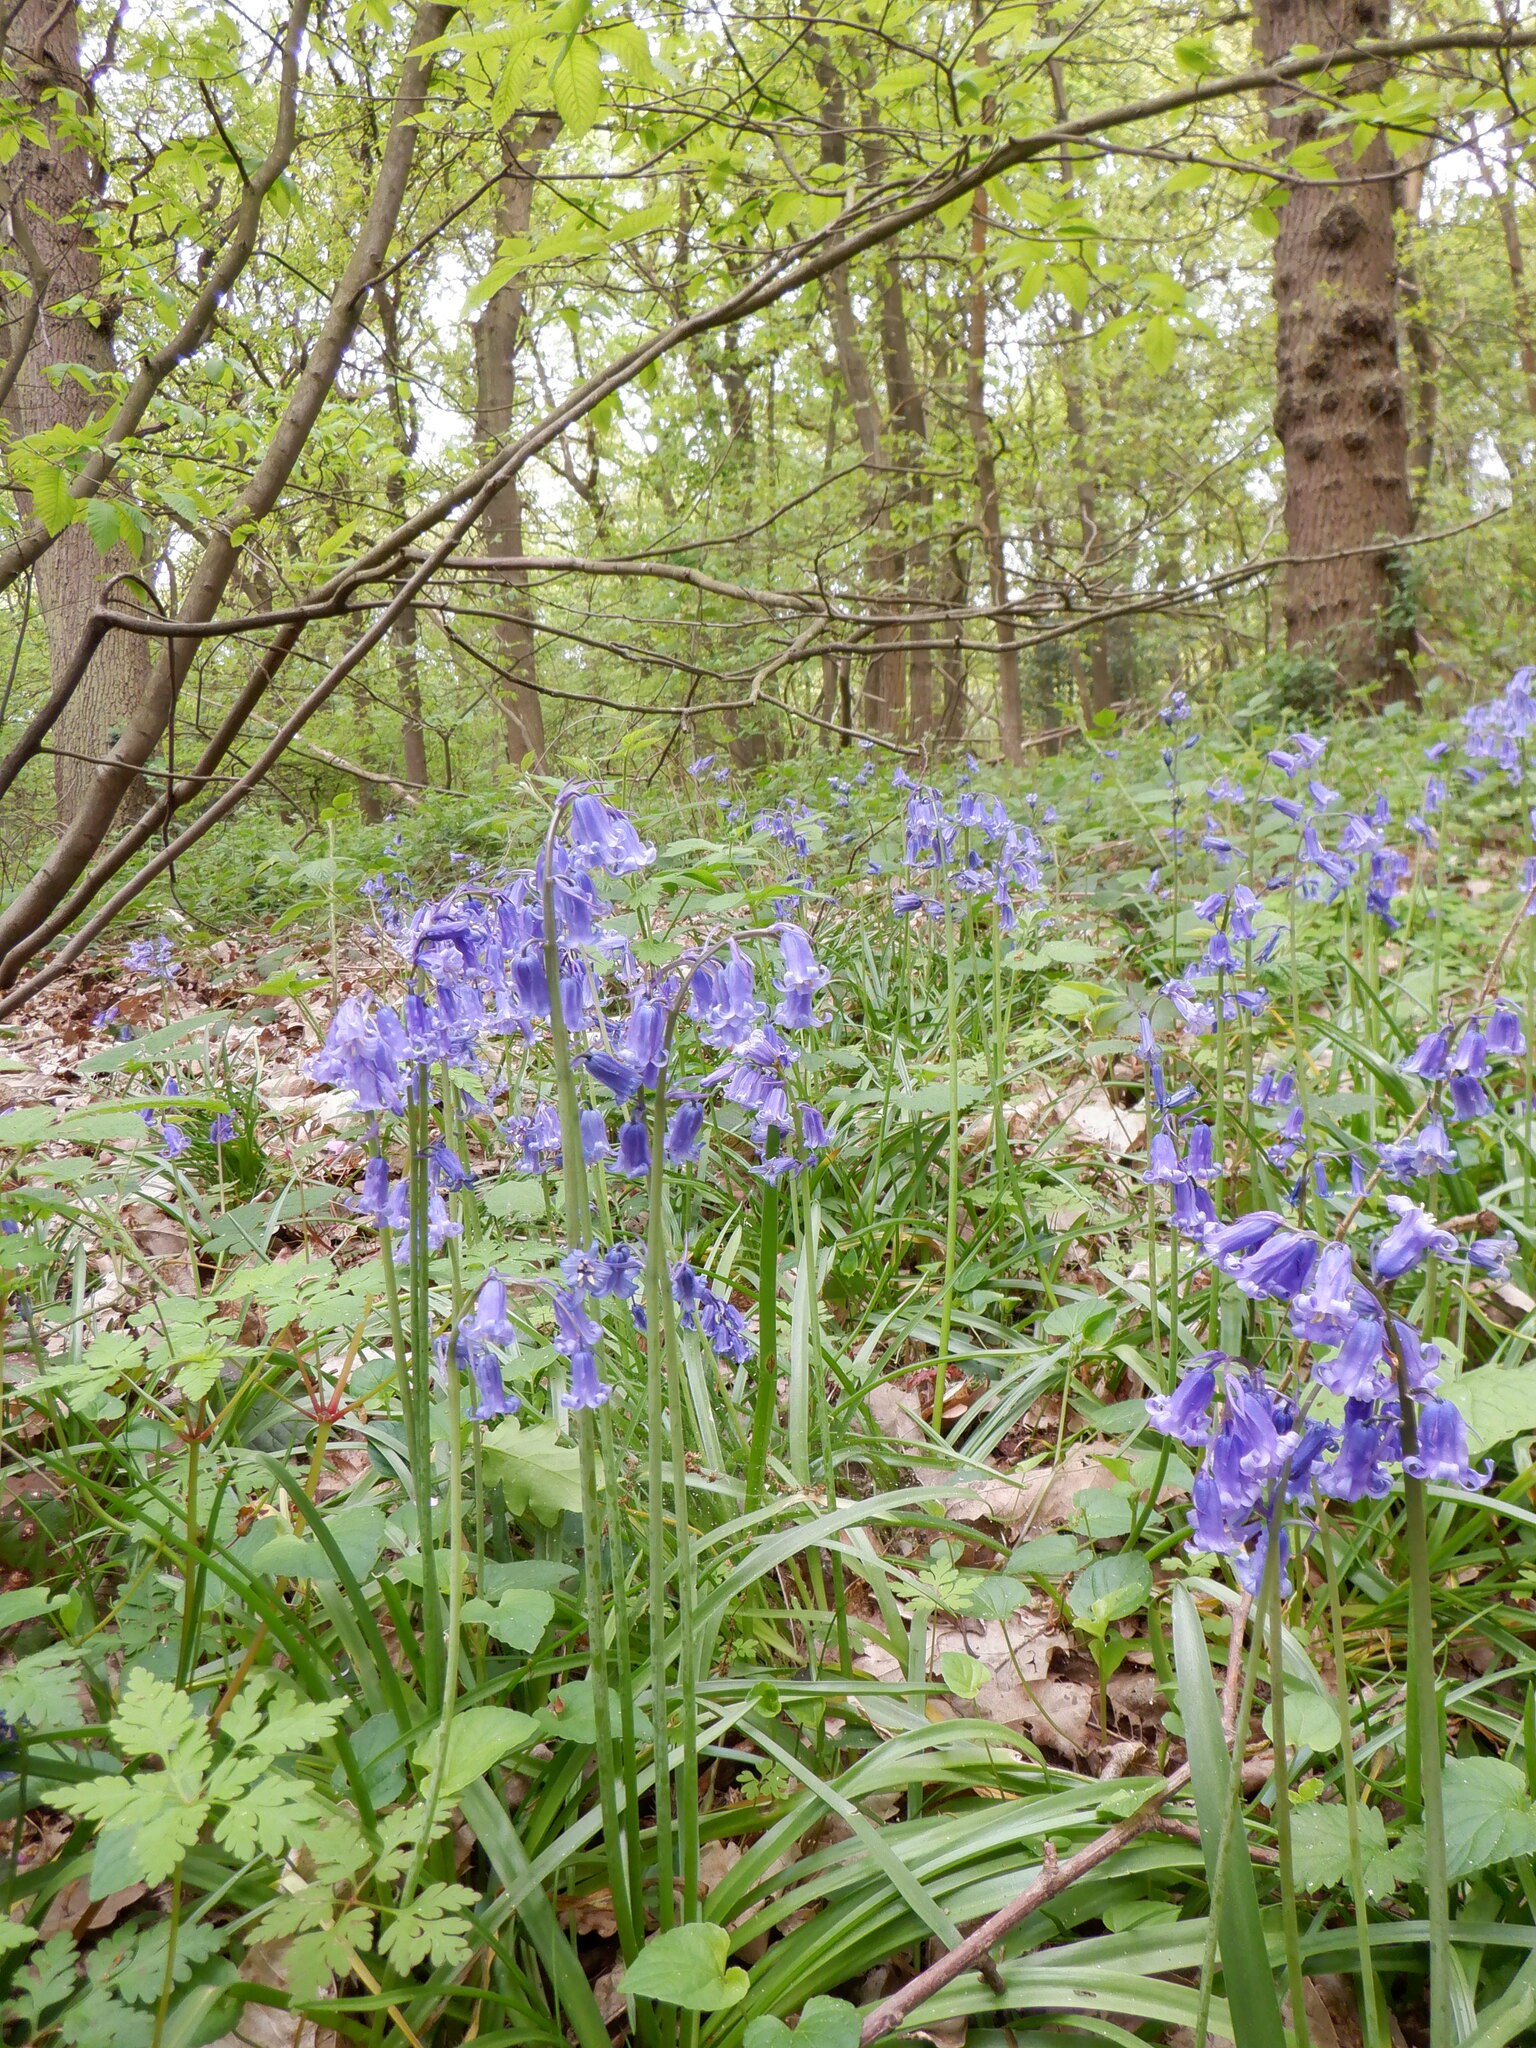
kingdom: Plantae
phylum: Tracheophyta
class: Liliopsida
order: Asparagales
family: Asparagaceae
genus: Hyacinthoides
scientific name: Hyacinthoides non-scripta
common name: Bluebell
